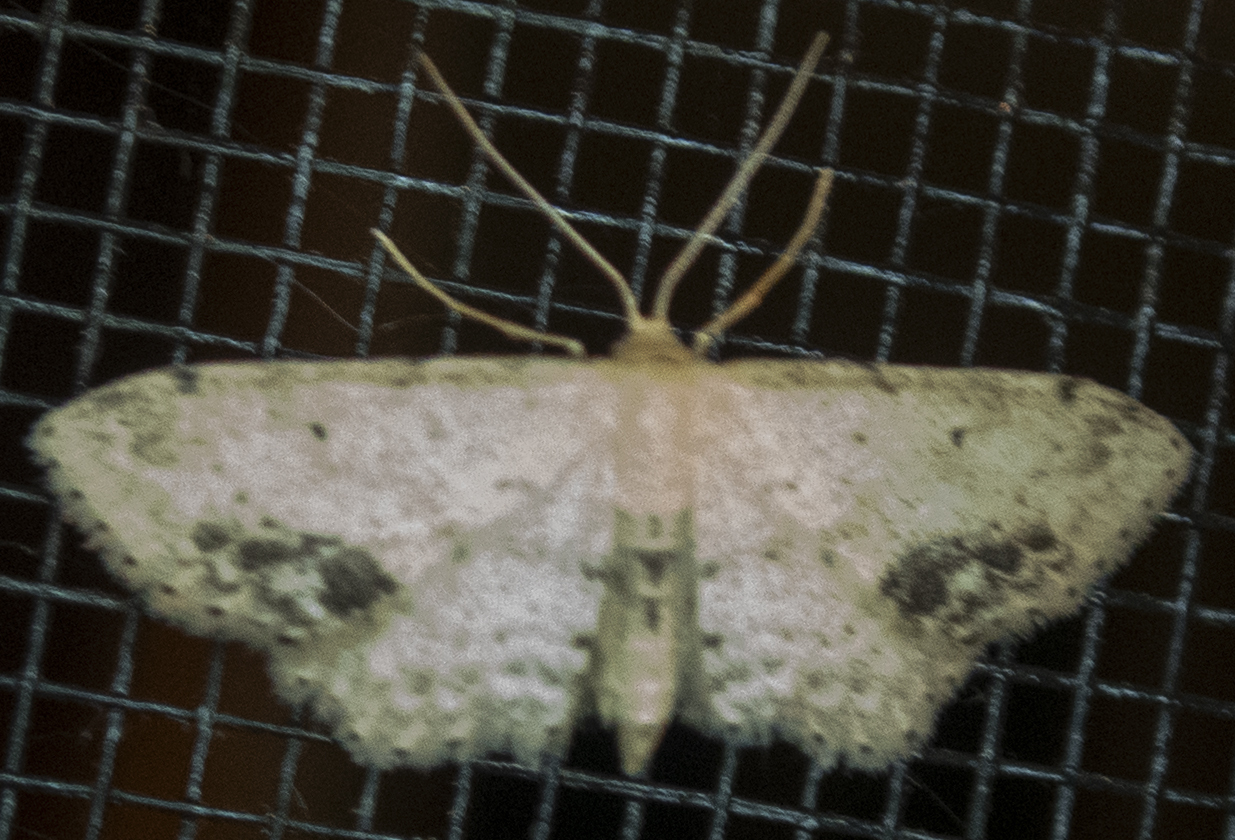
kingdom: Animalia
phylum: Arthropoda
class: Insecta
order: Lepidoptera
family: Geometridae
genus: Idaea
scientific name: Idaea dimidiata
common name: Single-dotted wave
